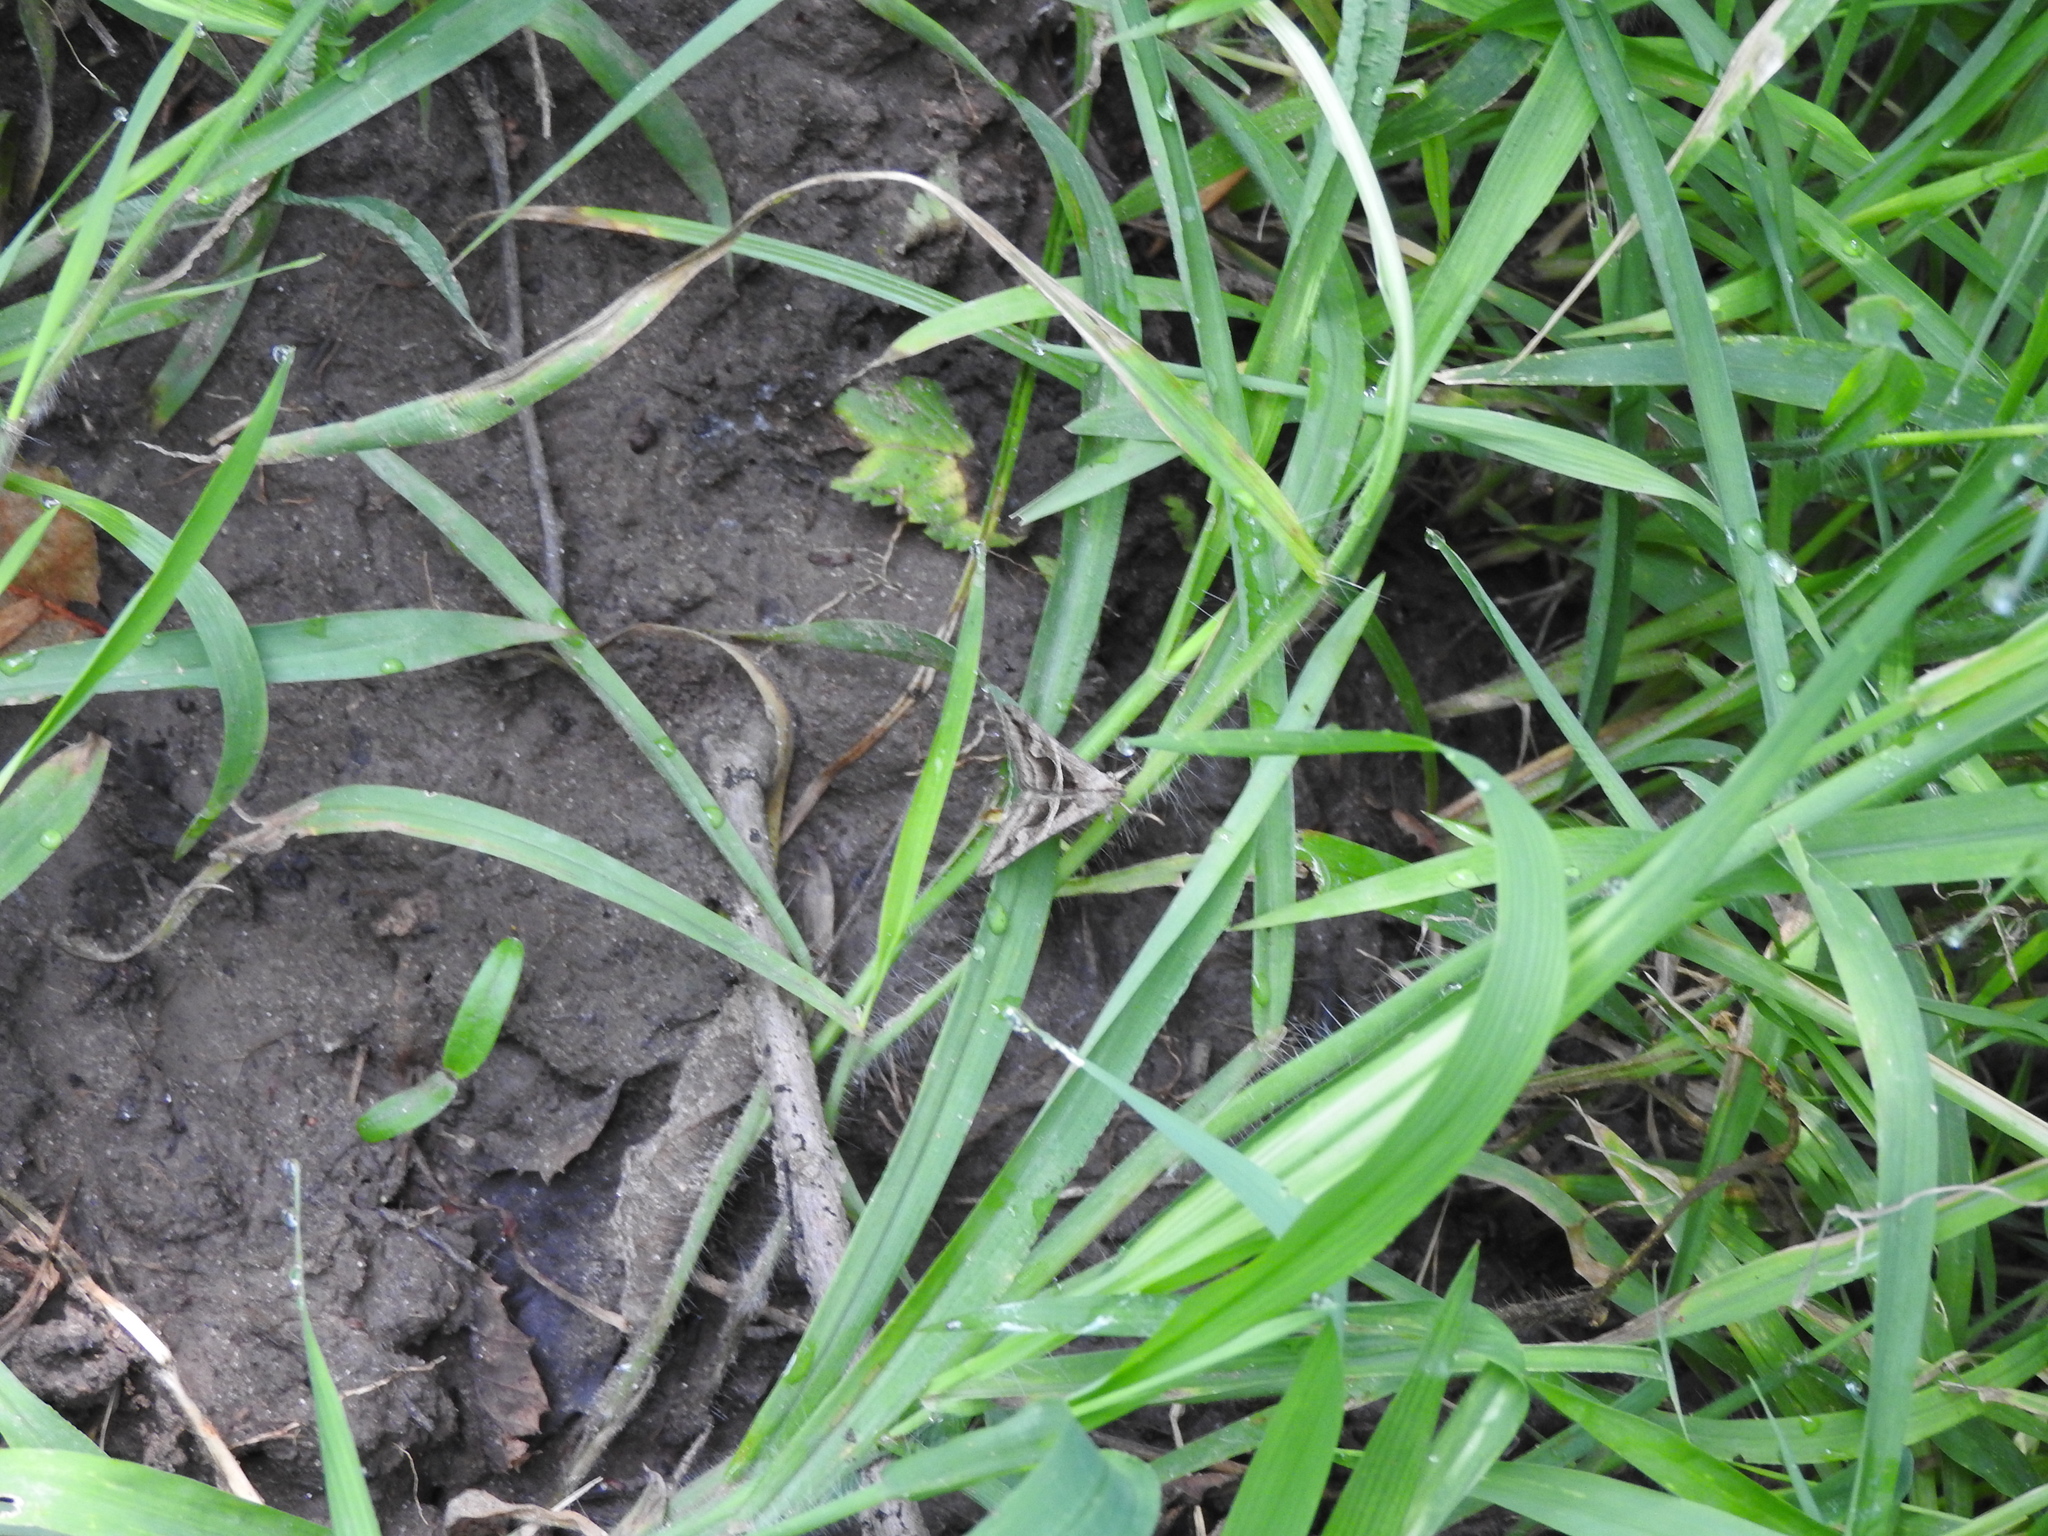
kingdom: Animalia
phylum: Arthropoda
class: Insecta
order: Lepidoptera
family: Erebidae
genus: Melipotis
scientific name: Melipotis cellaris
